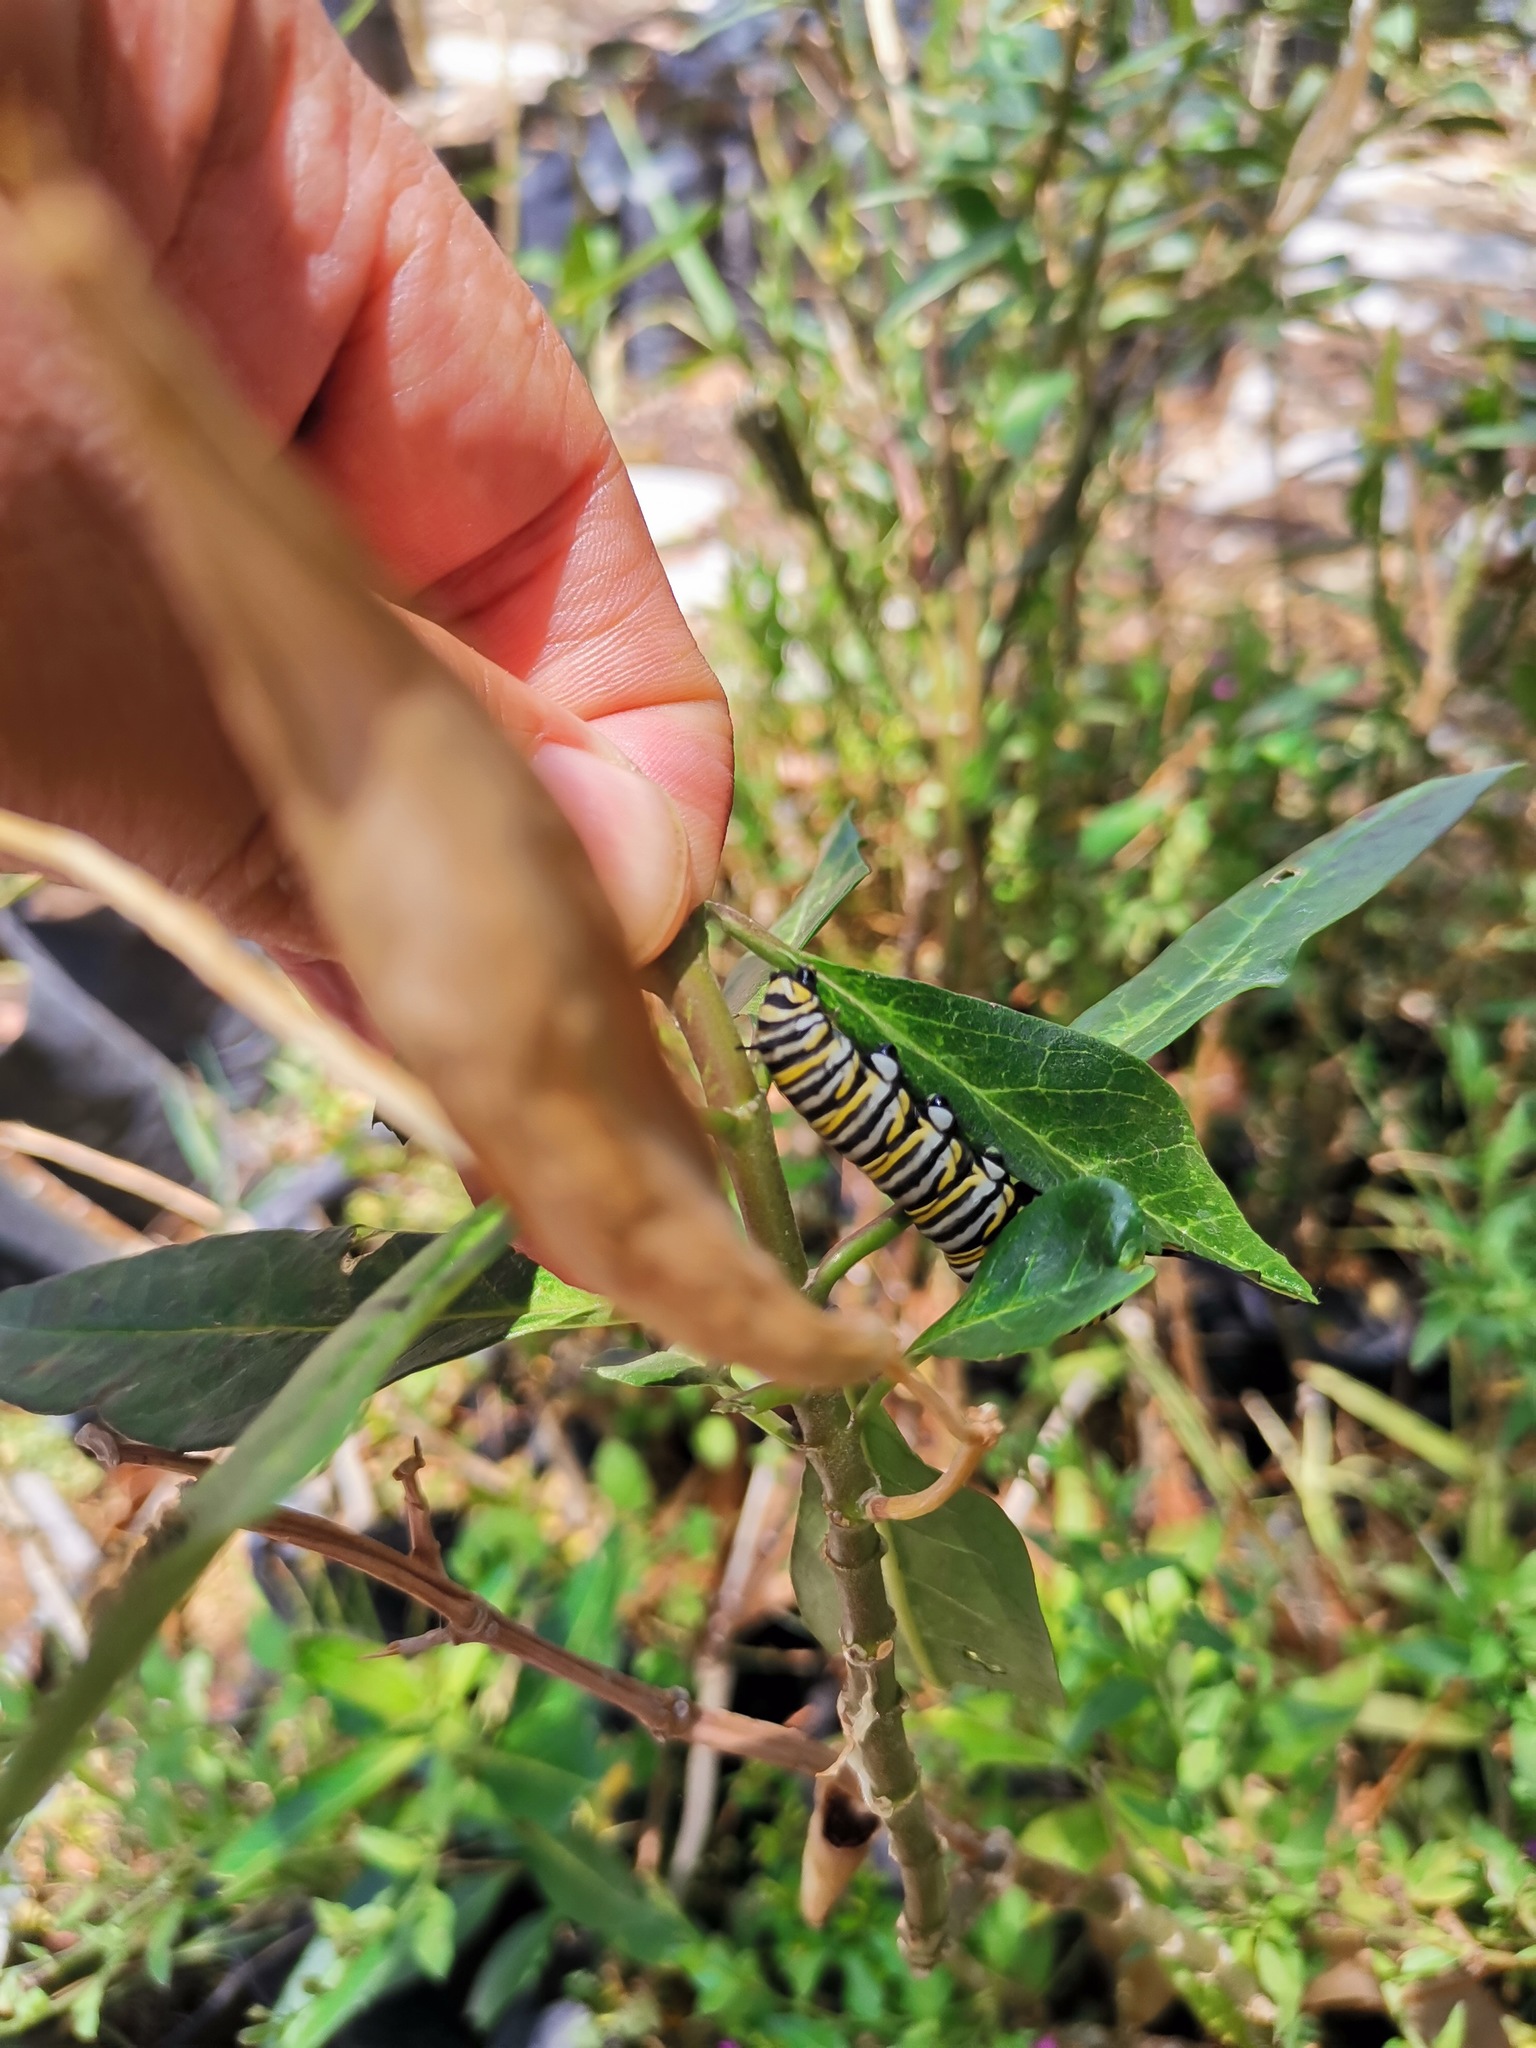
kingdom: Animalia
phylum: Arthropoda
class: Insecta
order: Lepidoptera
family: Nymphalidae
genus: Danaus
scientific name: Danaus plexippus
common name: Monarch
